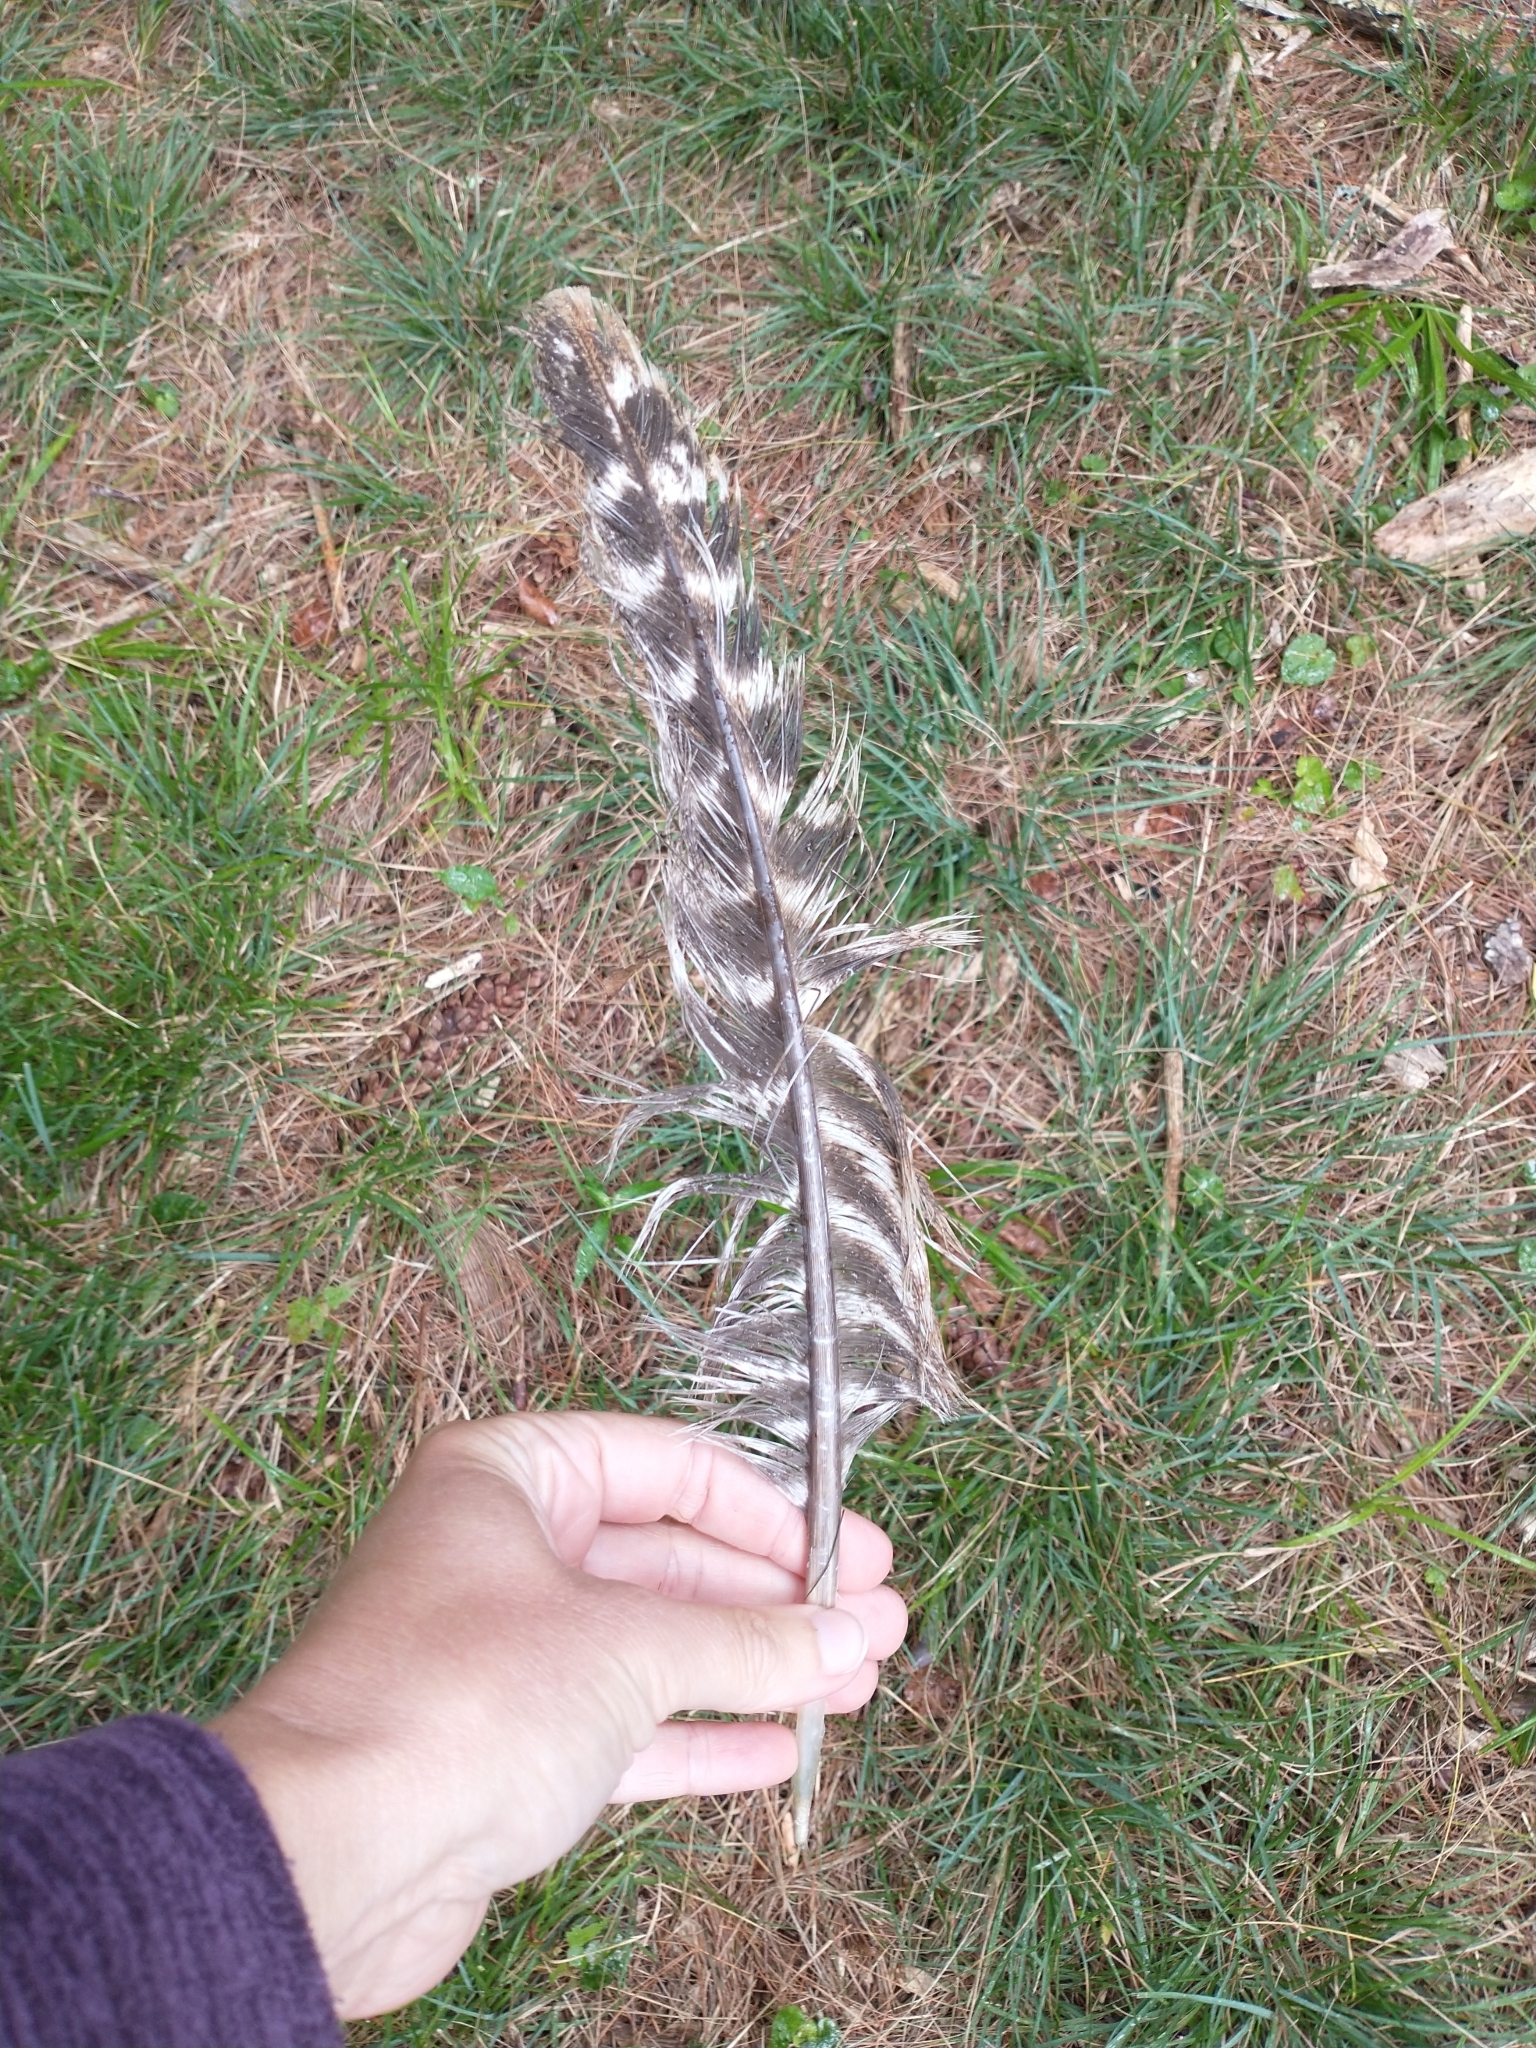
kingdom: Animalia
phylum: Chordata
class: Aves
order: Galliformes
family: Phasianidae
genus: Meleagris
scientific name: Meleagris gallopavo
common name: Wild turkey
